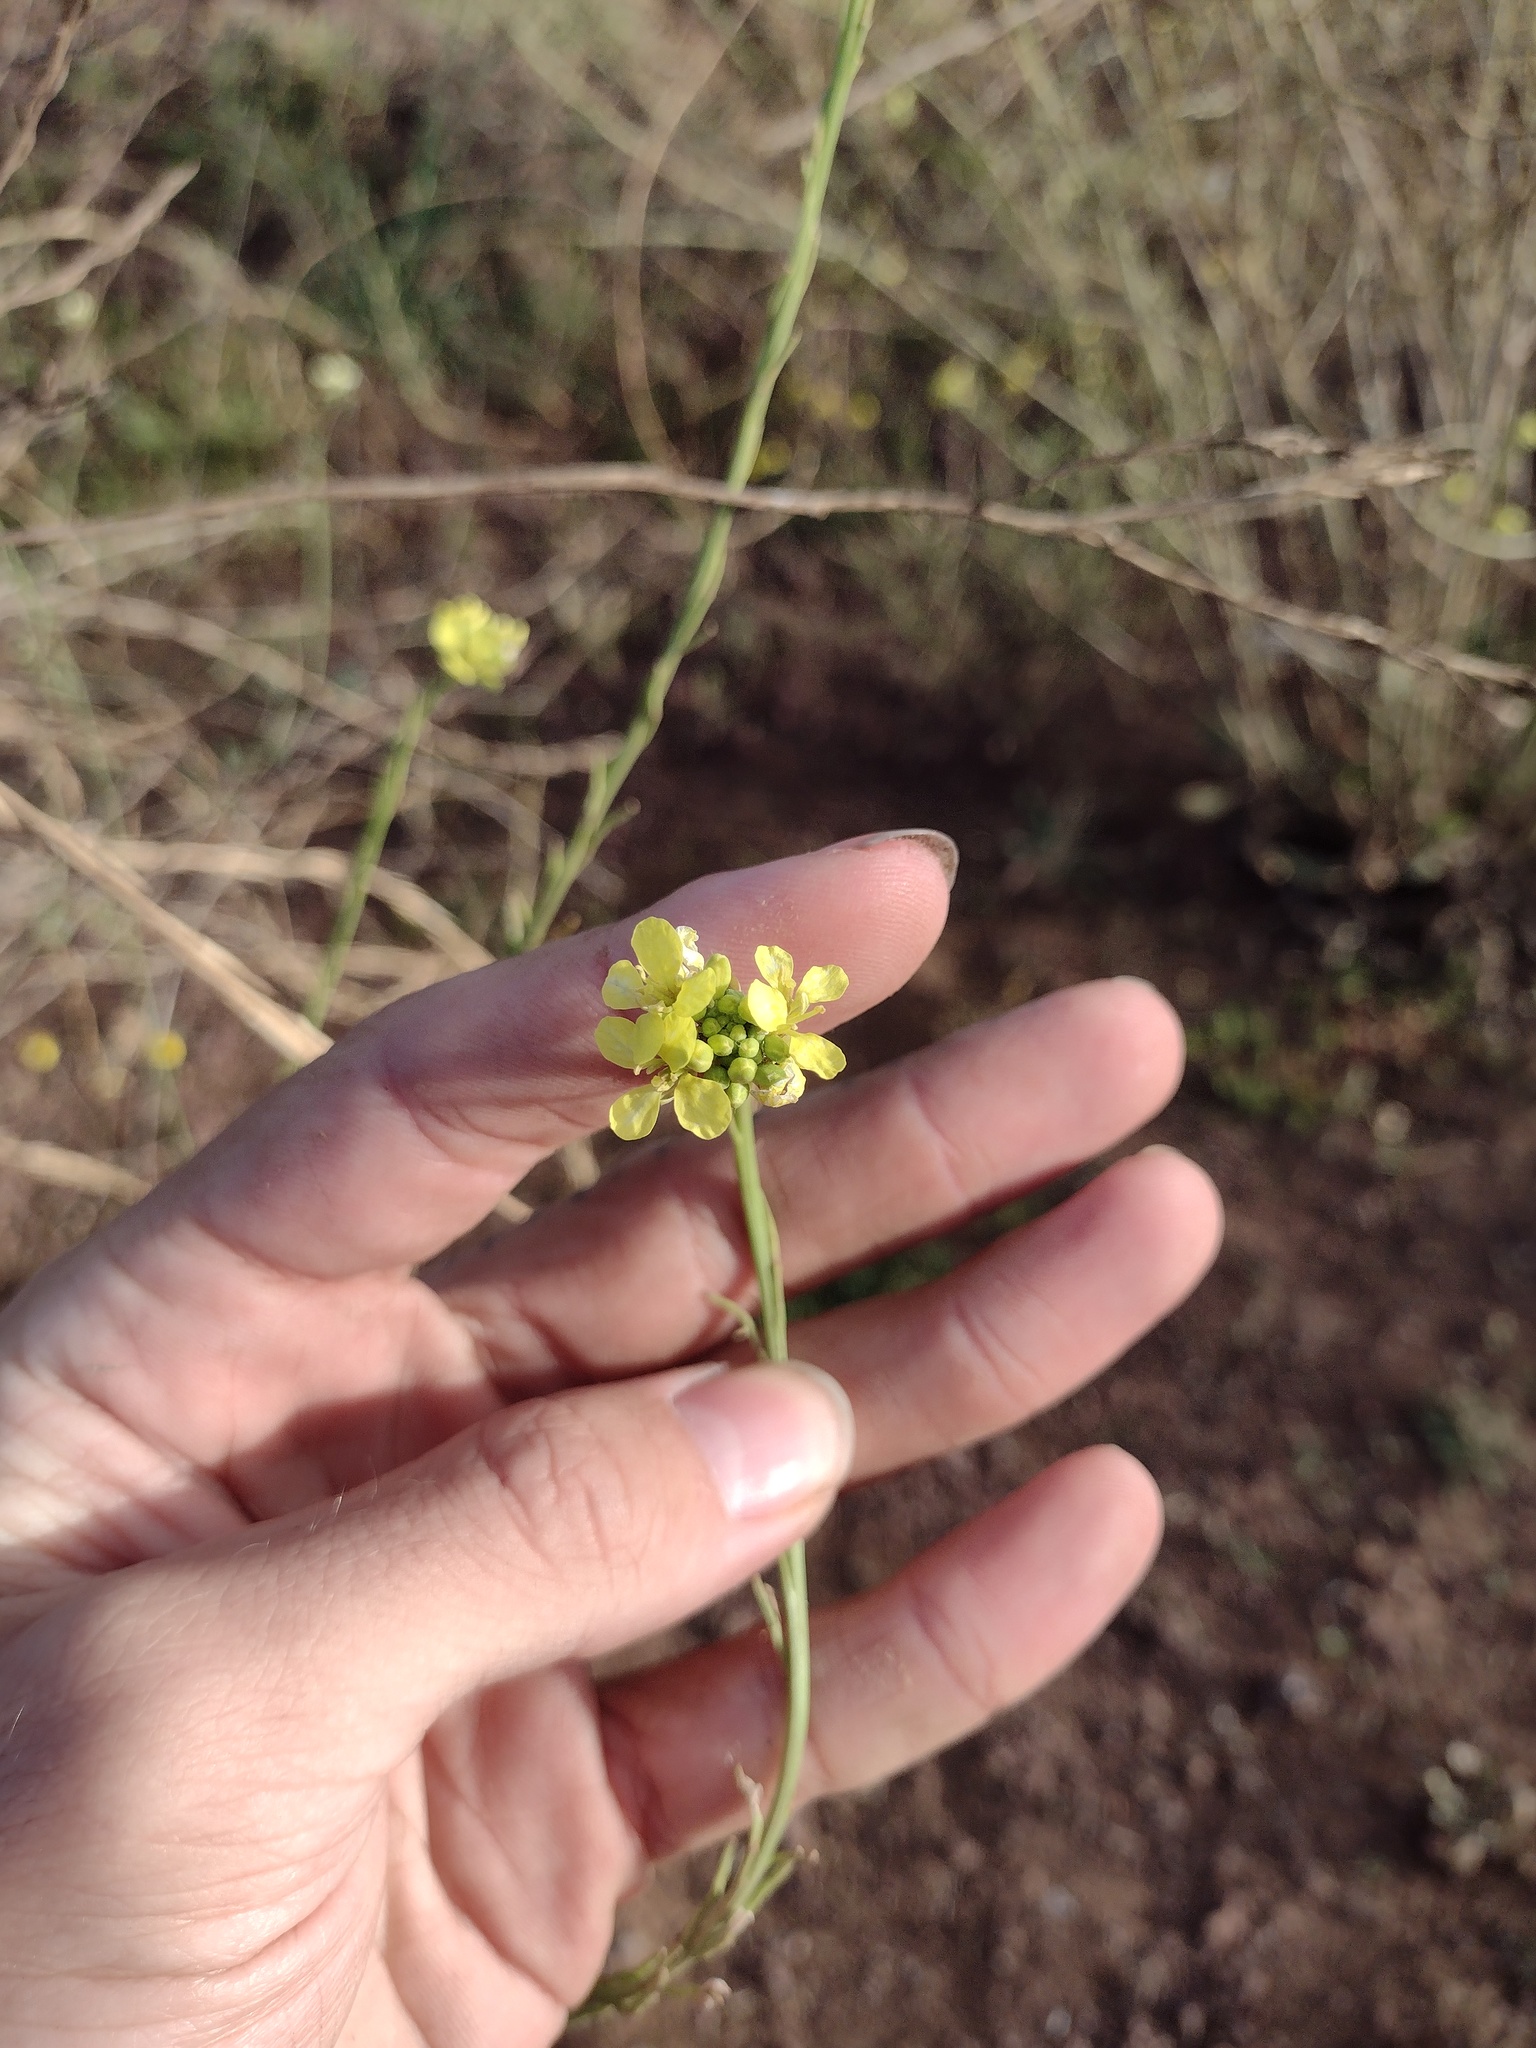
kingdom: Plantae
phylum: Tracheophyta
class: Magnoliopsida
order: Brassicales
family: Brassicaceae
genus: Hirschfeldia
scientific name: Hirschfeldia incana
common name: Hoary mustard
